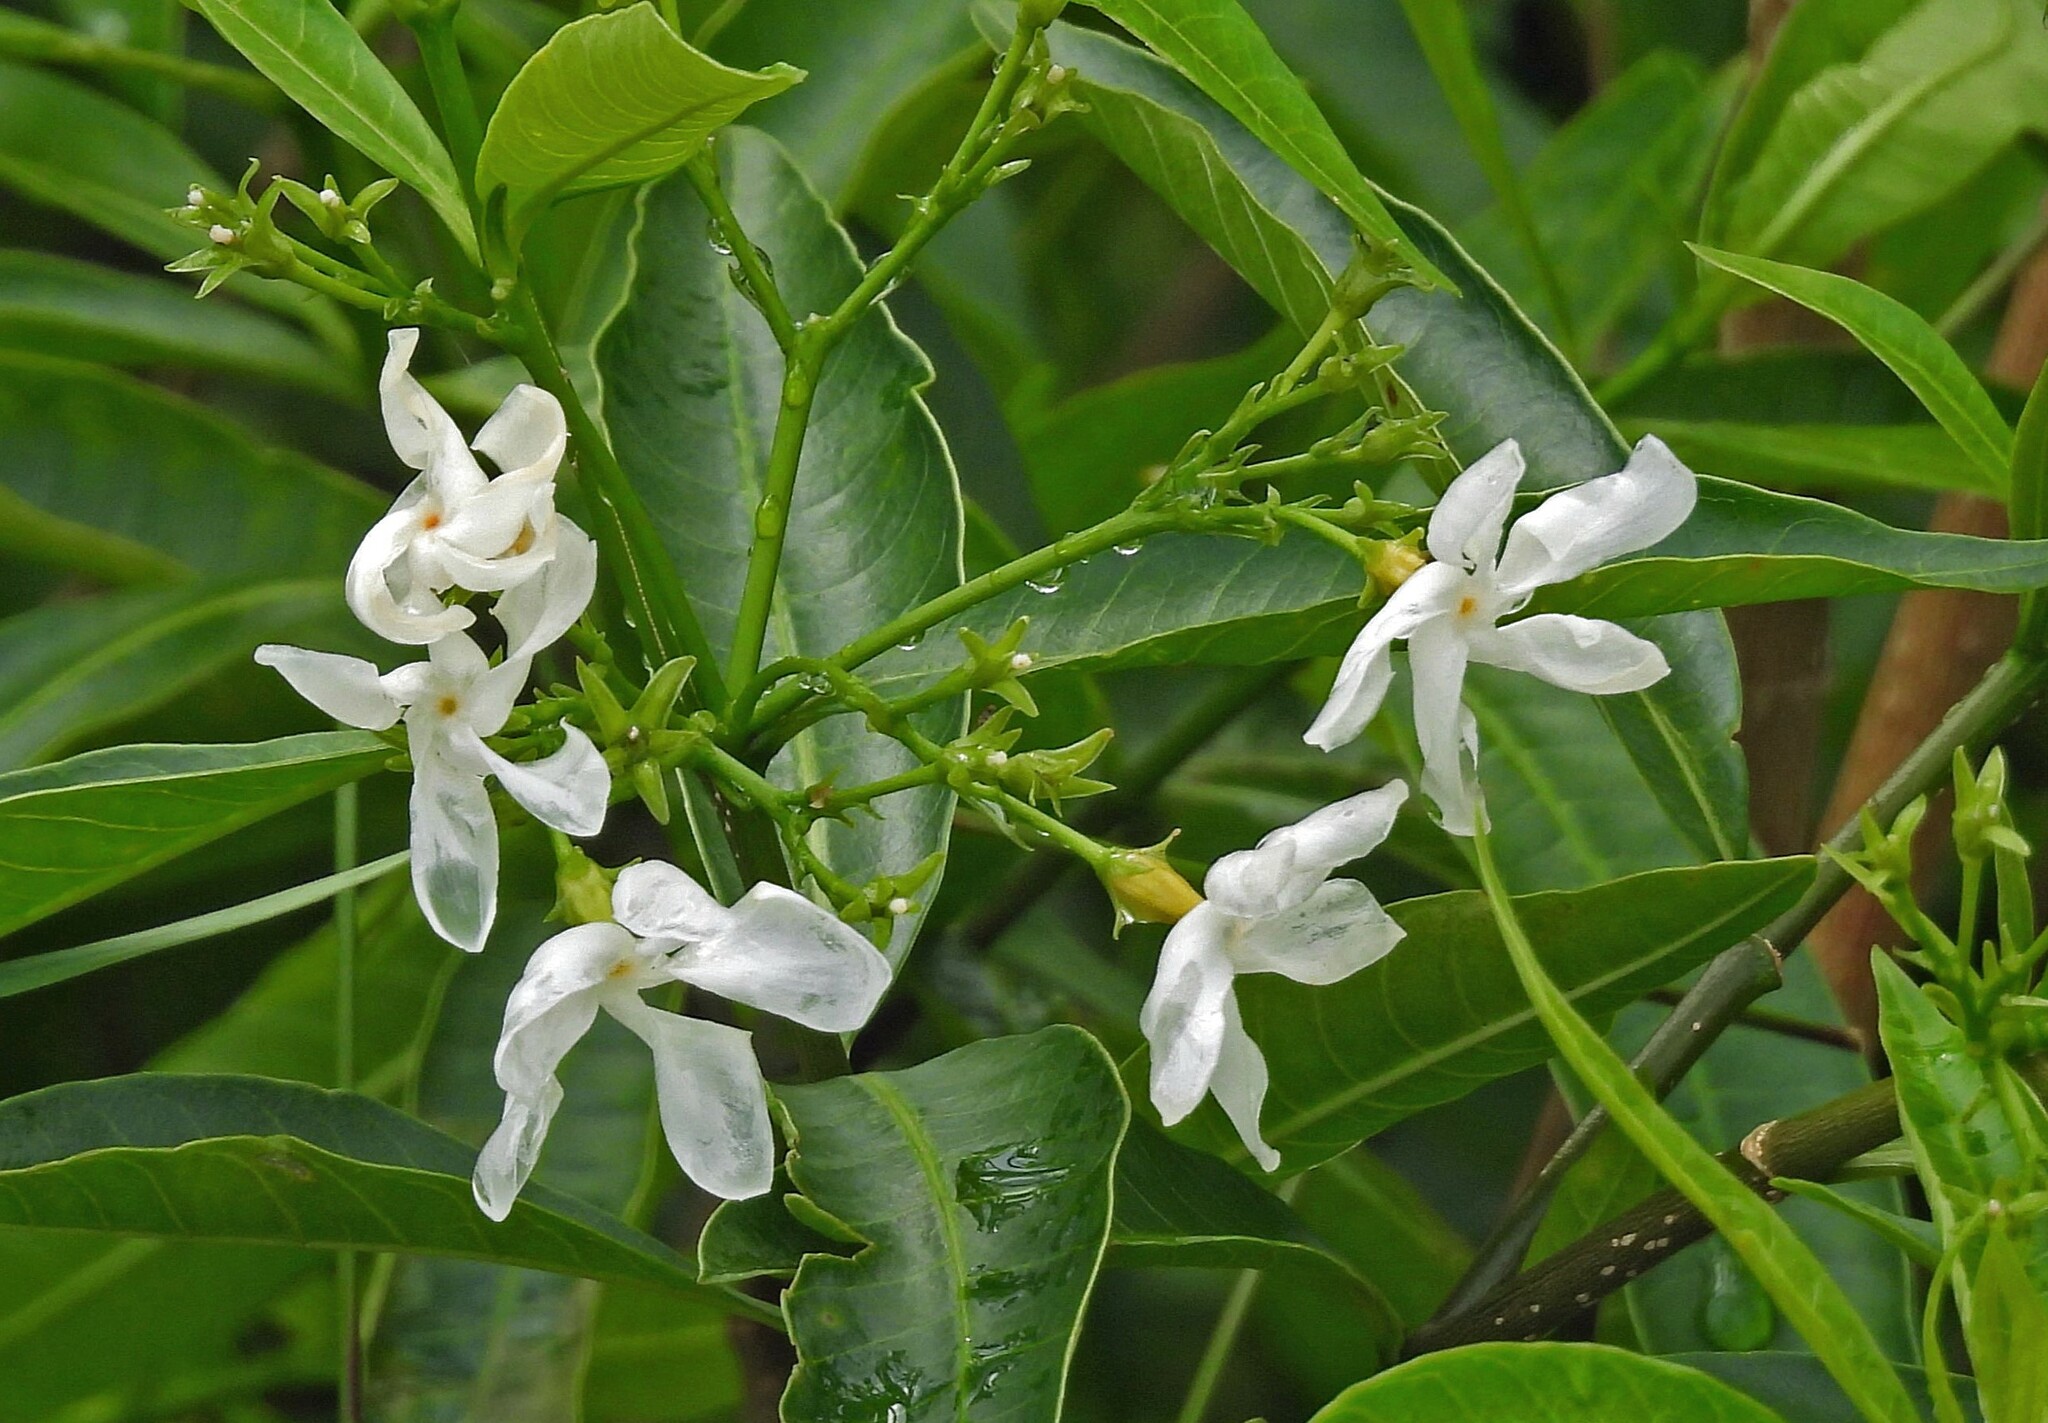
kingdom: Plantae
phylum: Tracheophyta
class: Magnoliopsida
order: Gentianales
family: Apocynaceae
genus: Tabernaemontana
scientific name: Tabernaemontana catharinensis
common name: Pinwheel-flower
